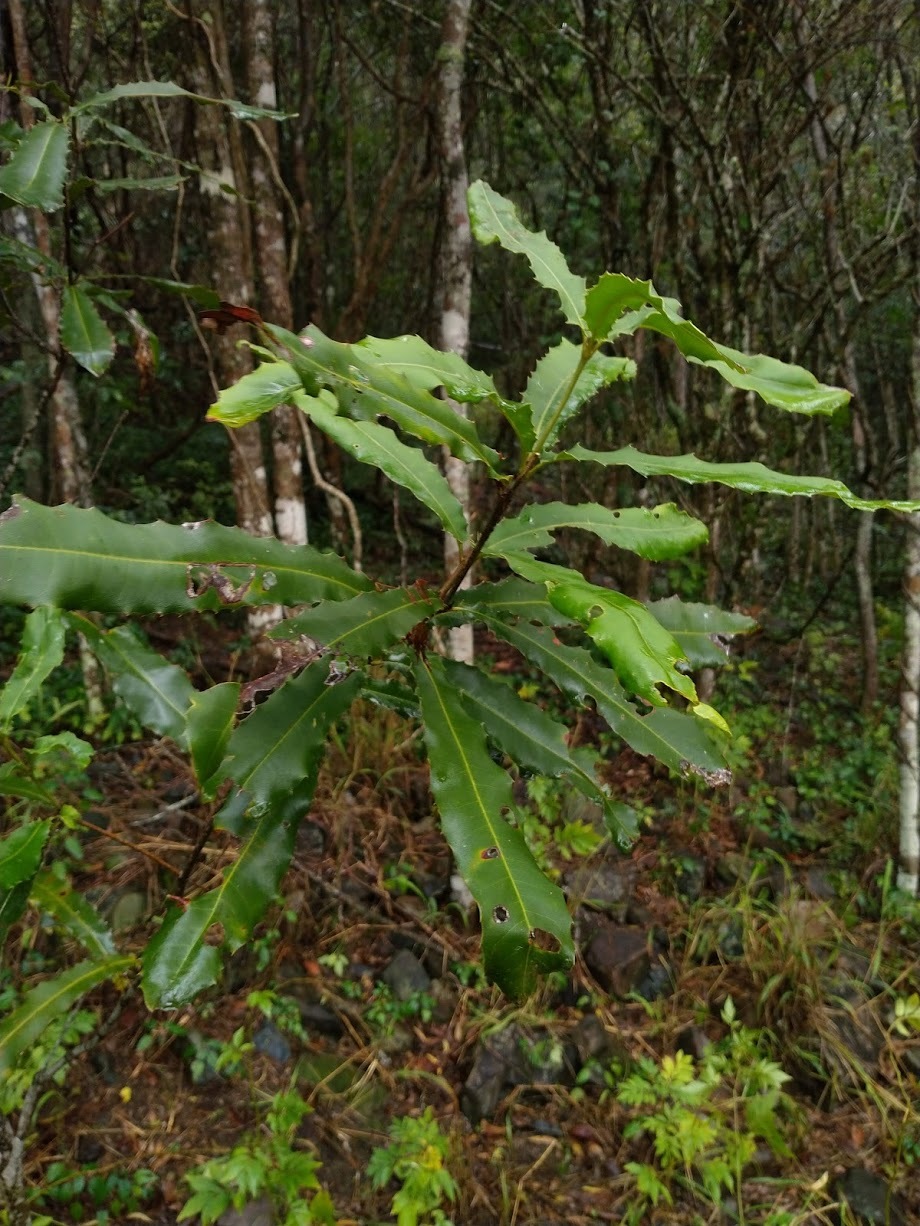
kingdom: Plantae
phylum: Tracheophyta
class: Magnoliopsida
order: Proteales
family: Proteaceae
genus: Macadamia
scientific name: Macadamia integrifolia
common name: Macadamia
